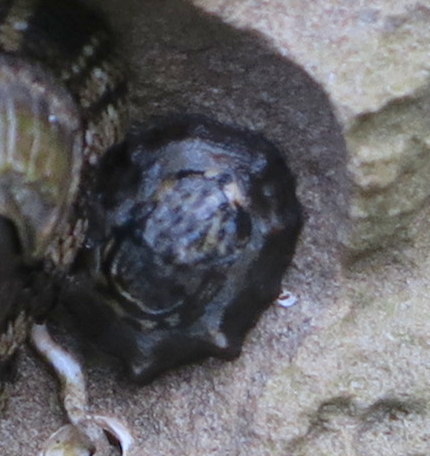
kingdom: Animalia
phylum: Mollusca
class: Gastropoda
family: Lottiidae
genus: Patelloida
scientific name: Patelloida latistrigata
